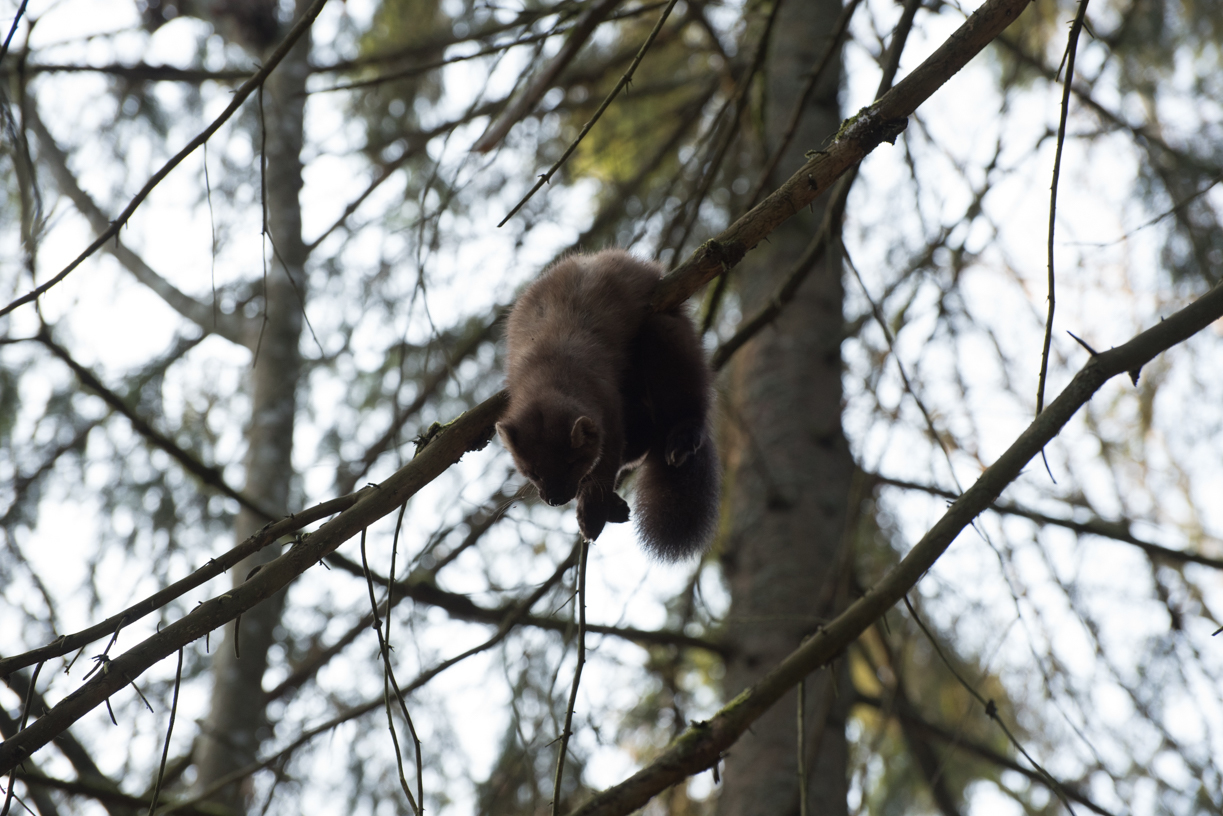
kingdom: Animalia
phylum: Chordata
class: Mammalia
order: Carnivora
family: Mustelidae
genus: Martes
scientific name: Martes martes
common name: European pine marten
